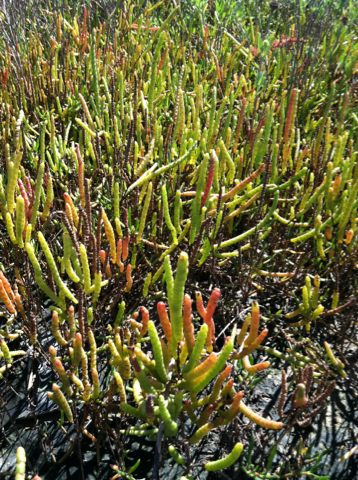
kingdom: Plantae
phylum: Tracheophyta
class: Magnoliopsida
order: Caryophyllales
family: Amaranthaceae
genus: Salicornia
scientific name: Salicornia bigelovii
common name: Dwarf glasswort
